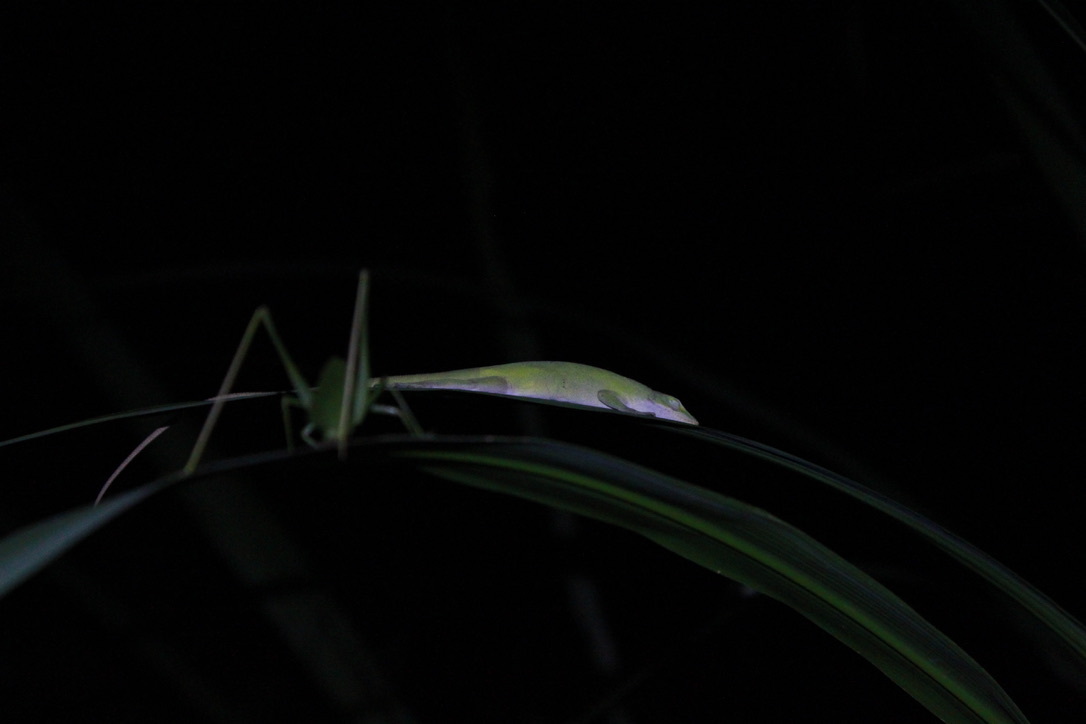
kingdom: Animalia
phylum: Chordata
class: Squamata
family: Dactyloidae
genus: Anolis
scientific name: Anolis carolinensis
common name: Green anole
